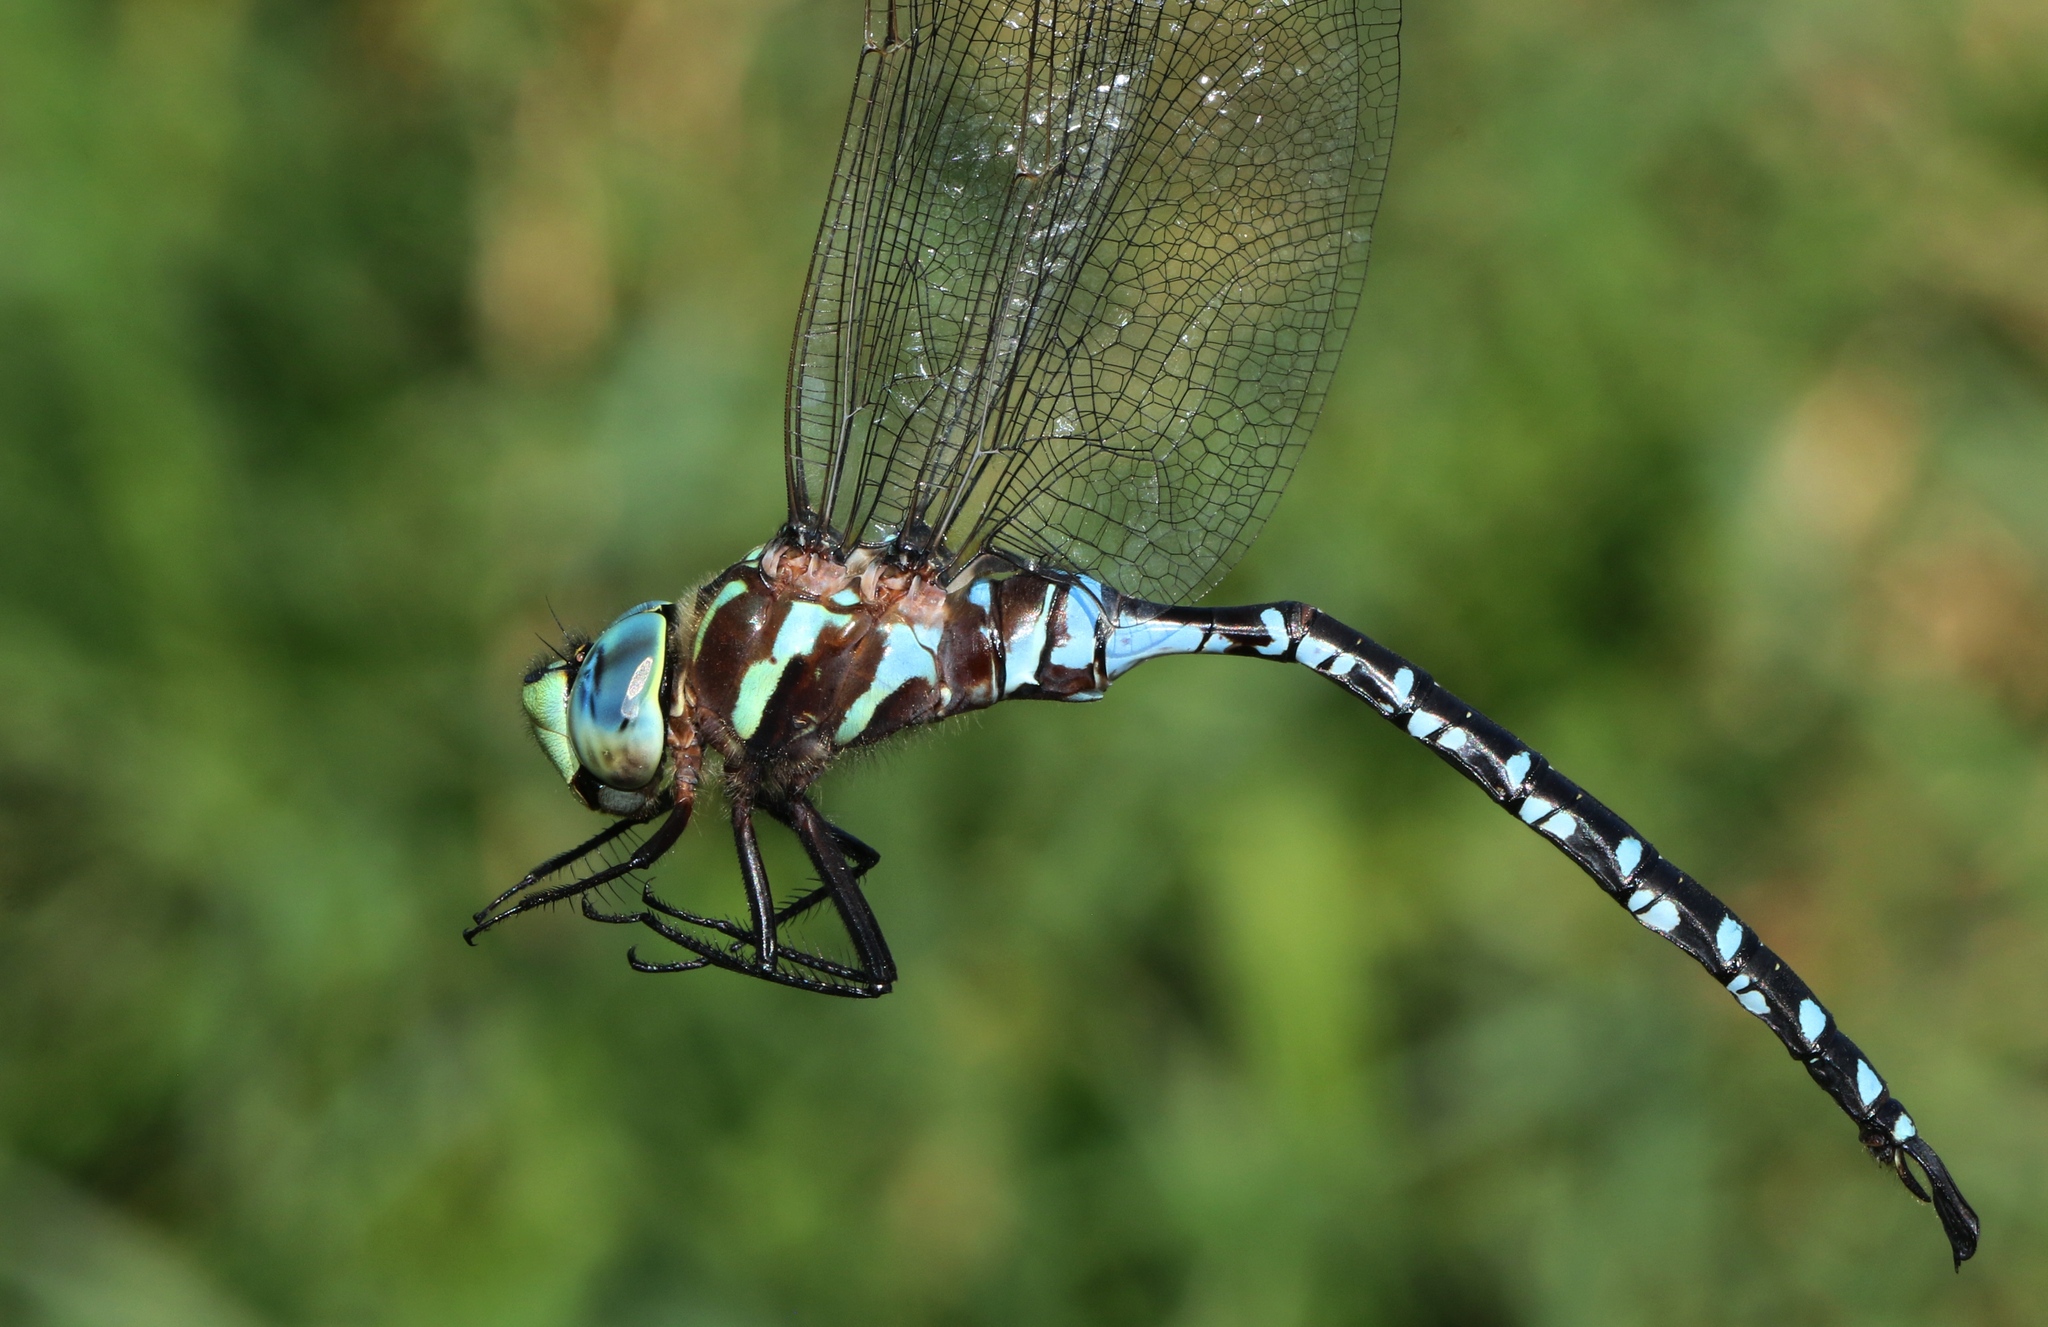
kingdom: Animalia
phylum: Arthropoda
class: Insecta
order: Odonata
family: Aeshnidae
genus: Aeshna
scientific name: Aeshna constricta
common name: Lance-tipped darner
